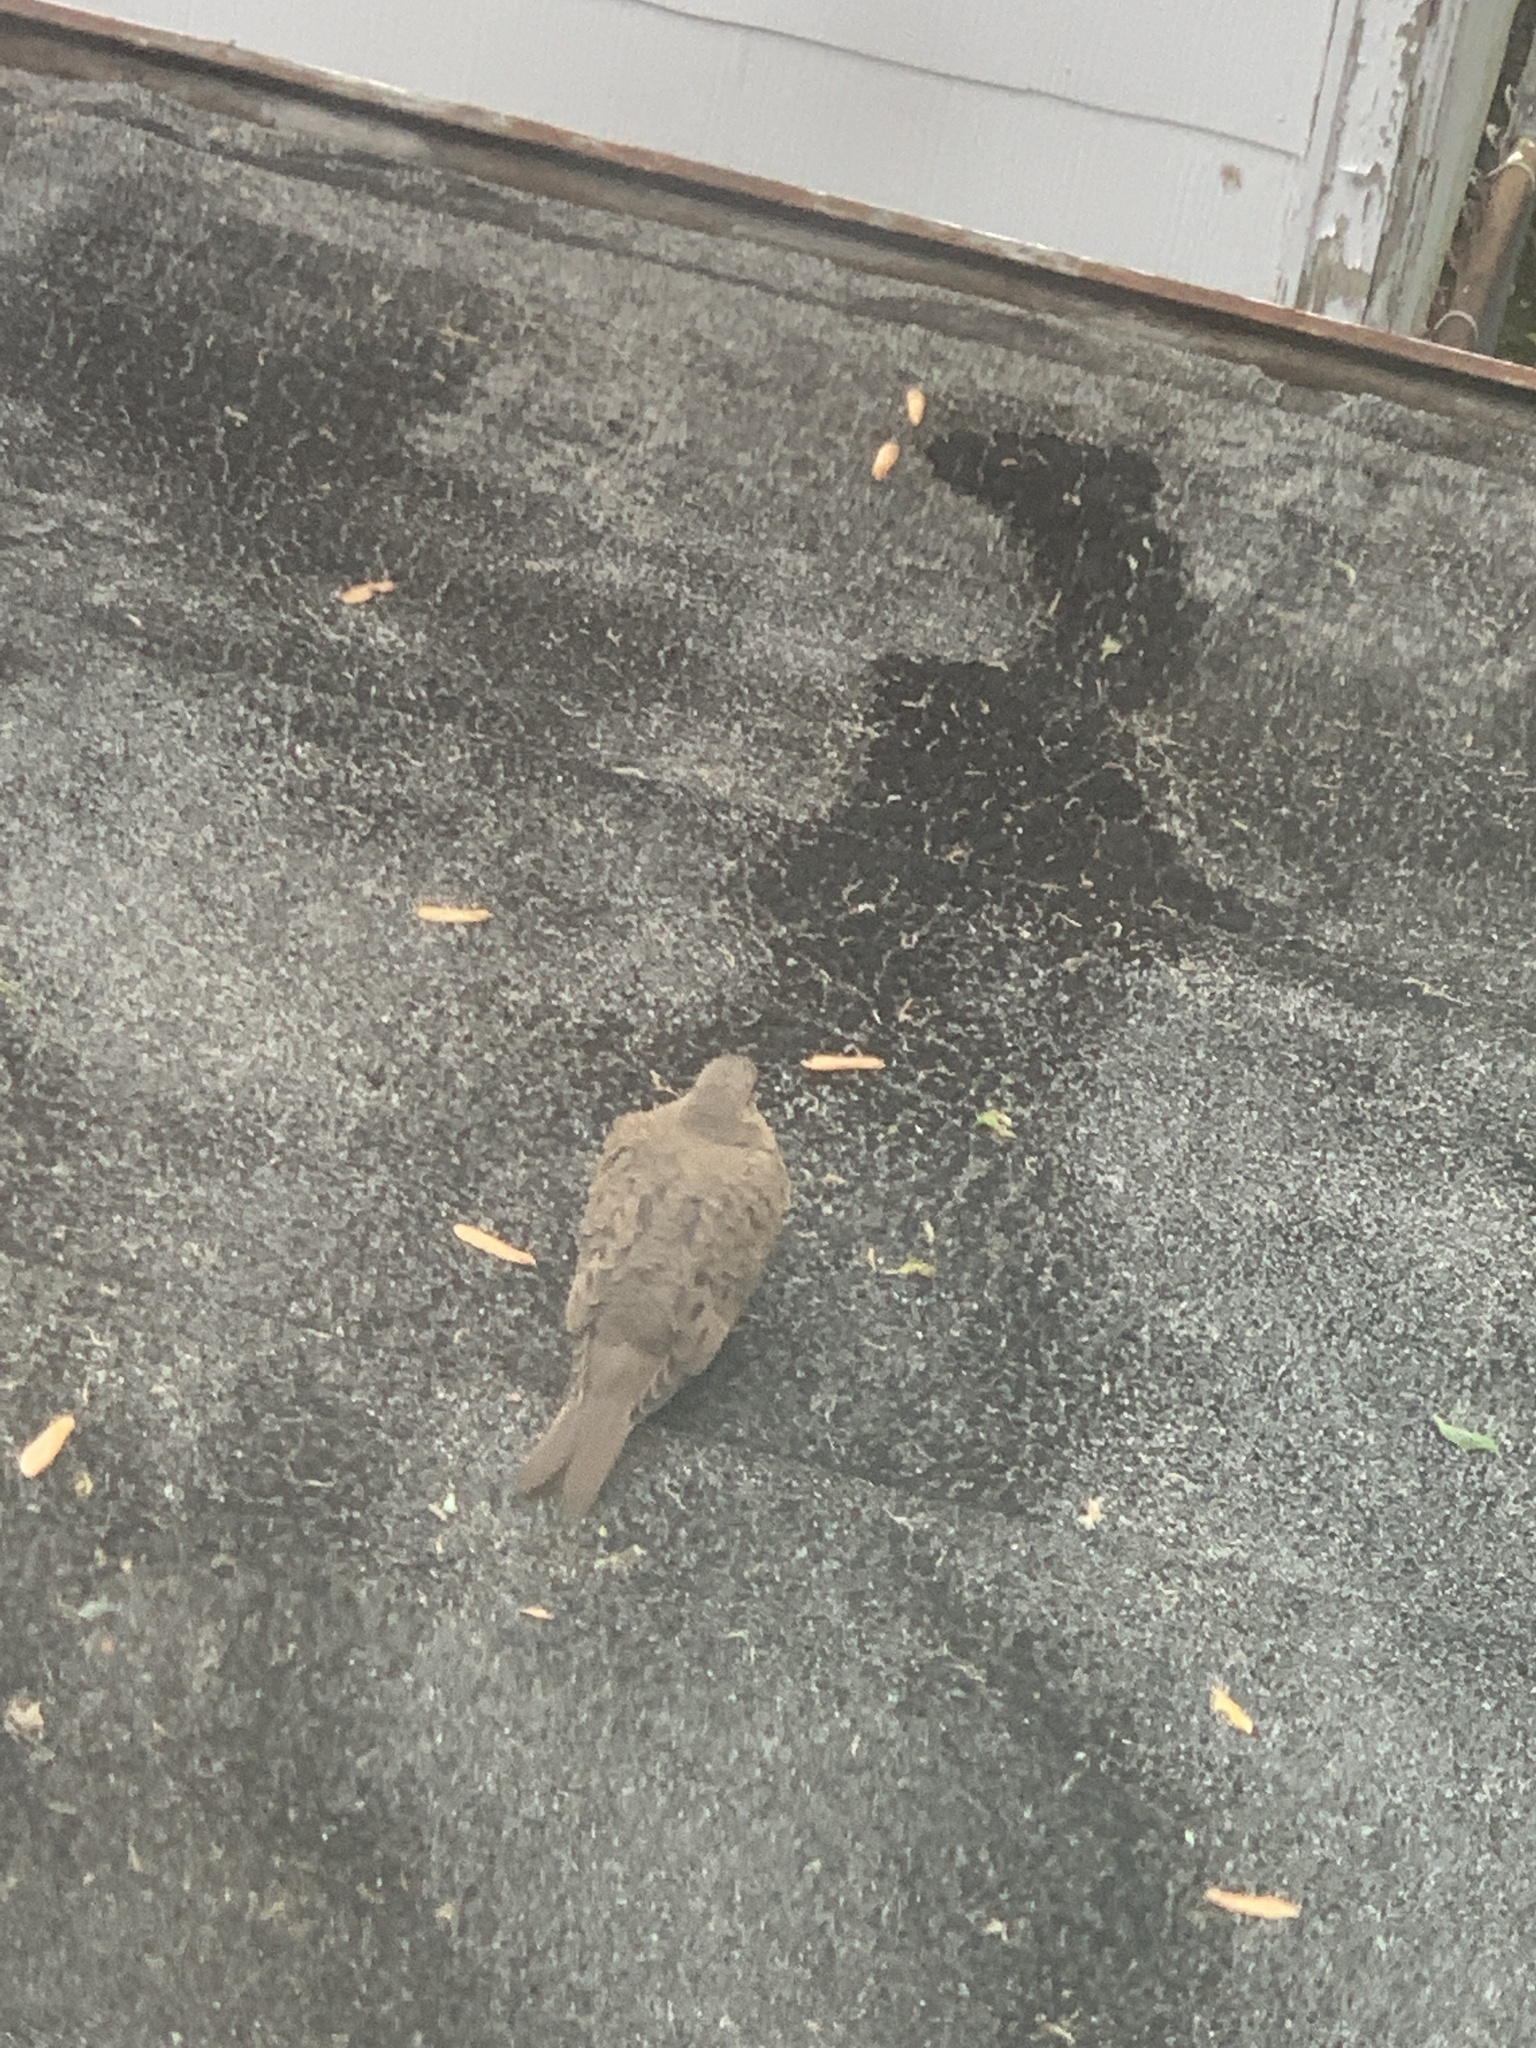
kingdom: Animalia
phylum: Chordata
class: Aves
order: Columbiformes
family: Columbidae
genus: Zenaida
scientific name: Zenaida macroura
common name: Mourning dove
